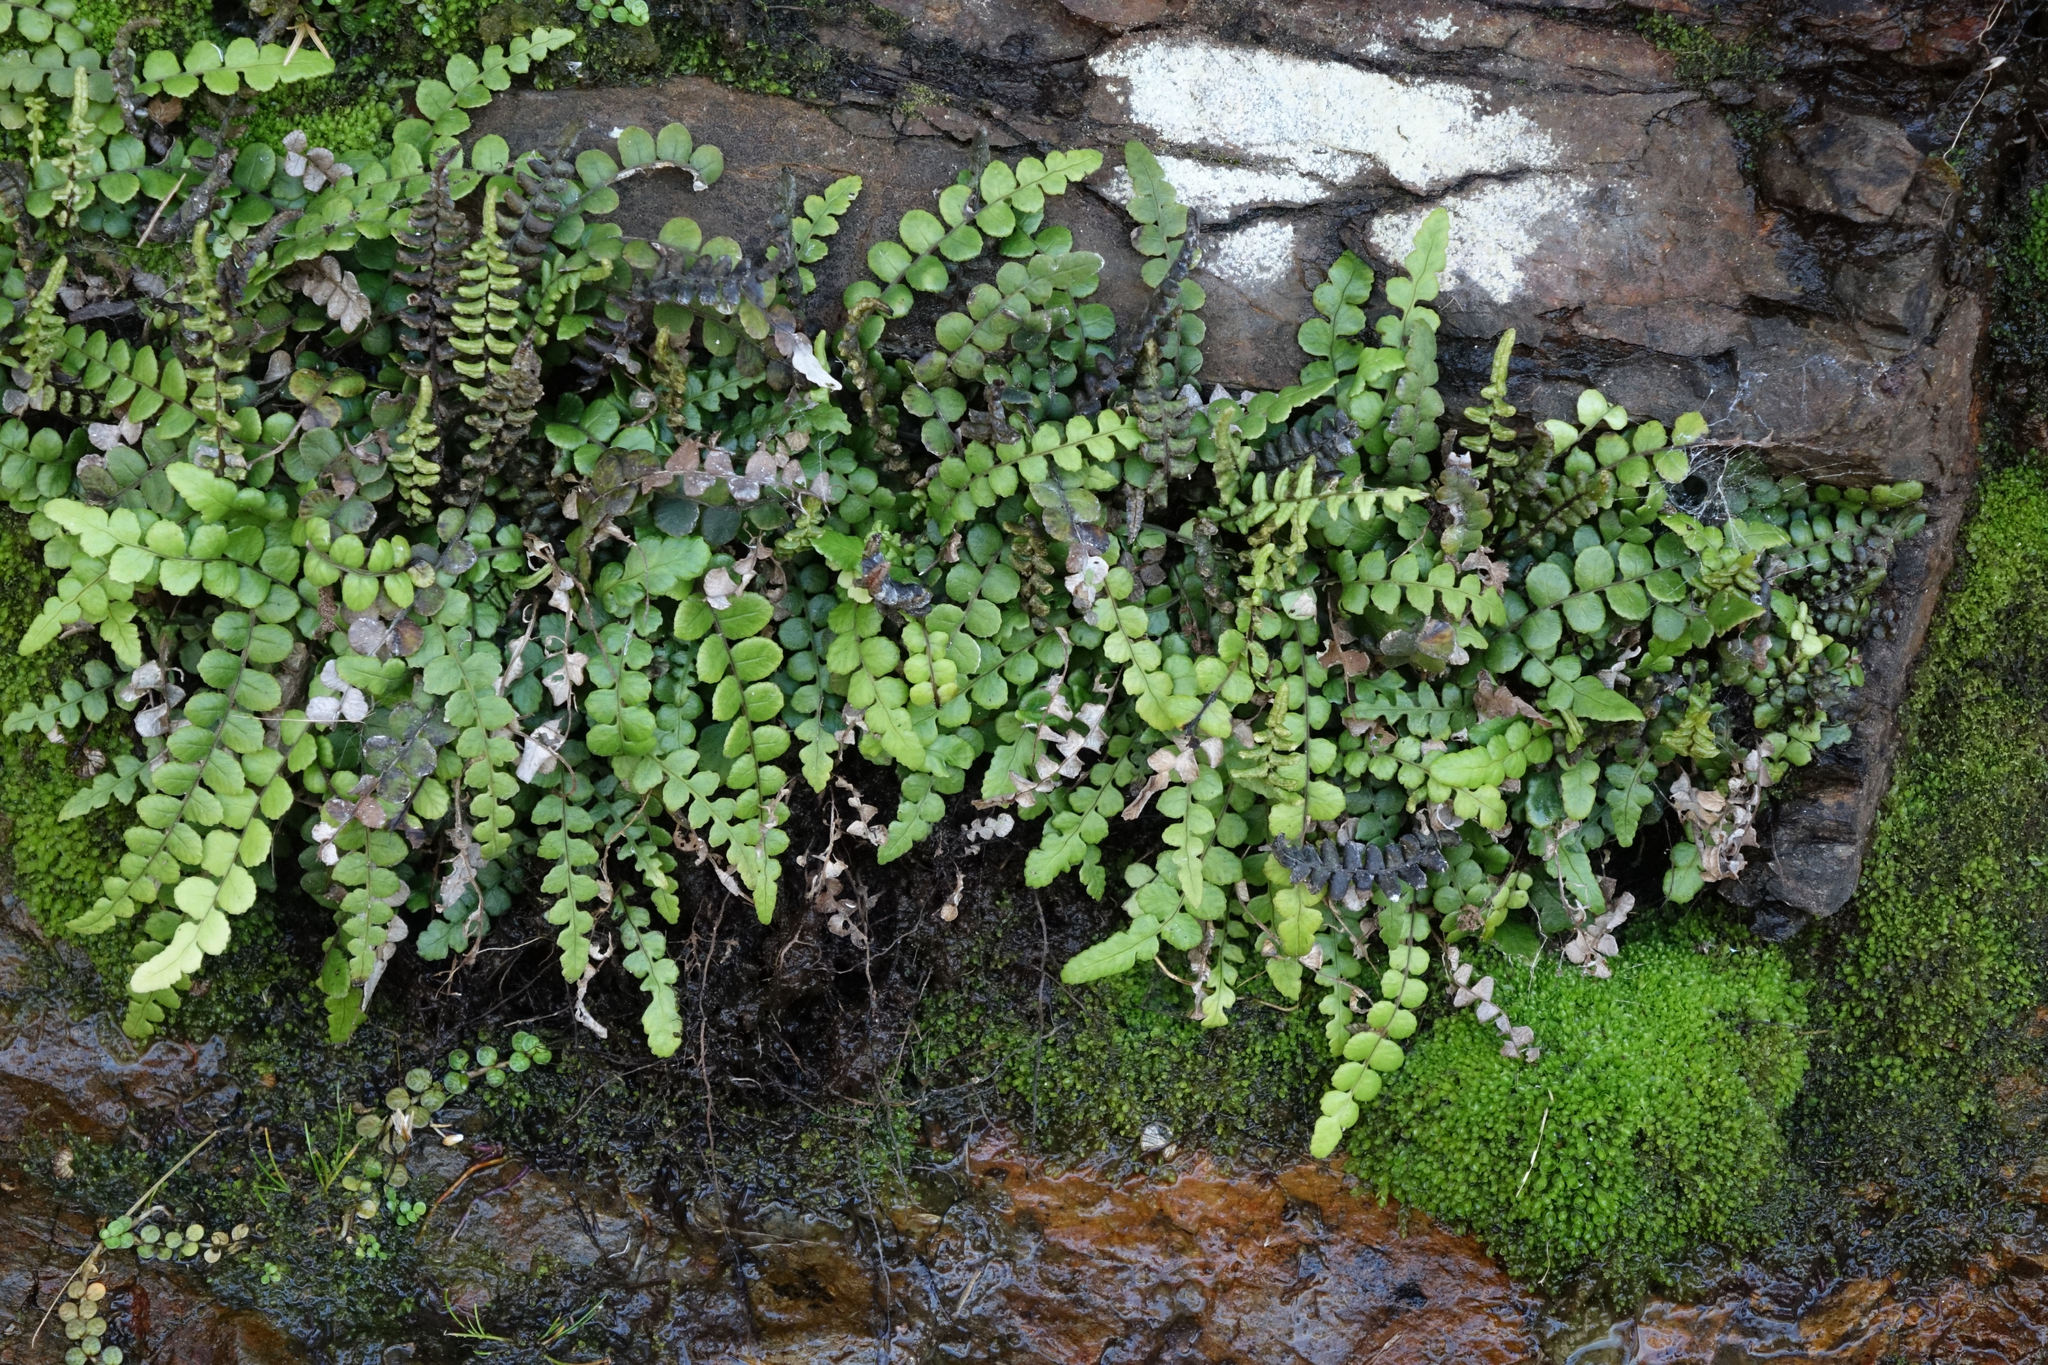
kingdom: Plantae
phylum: Tracheophyta
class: Polypodiopsida
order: Polypodiales
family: Blechnaceae
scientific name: Blechnaceae
